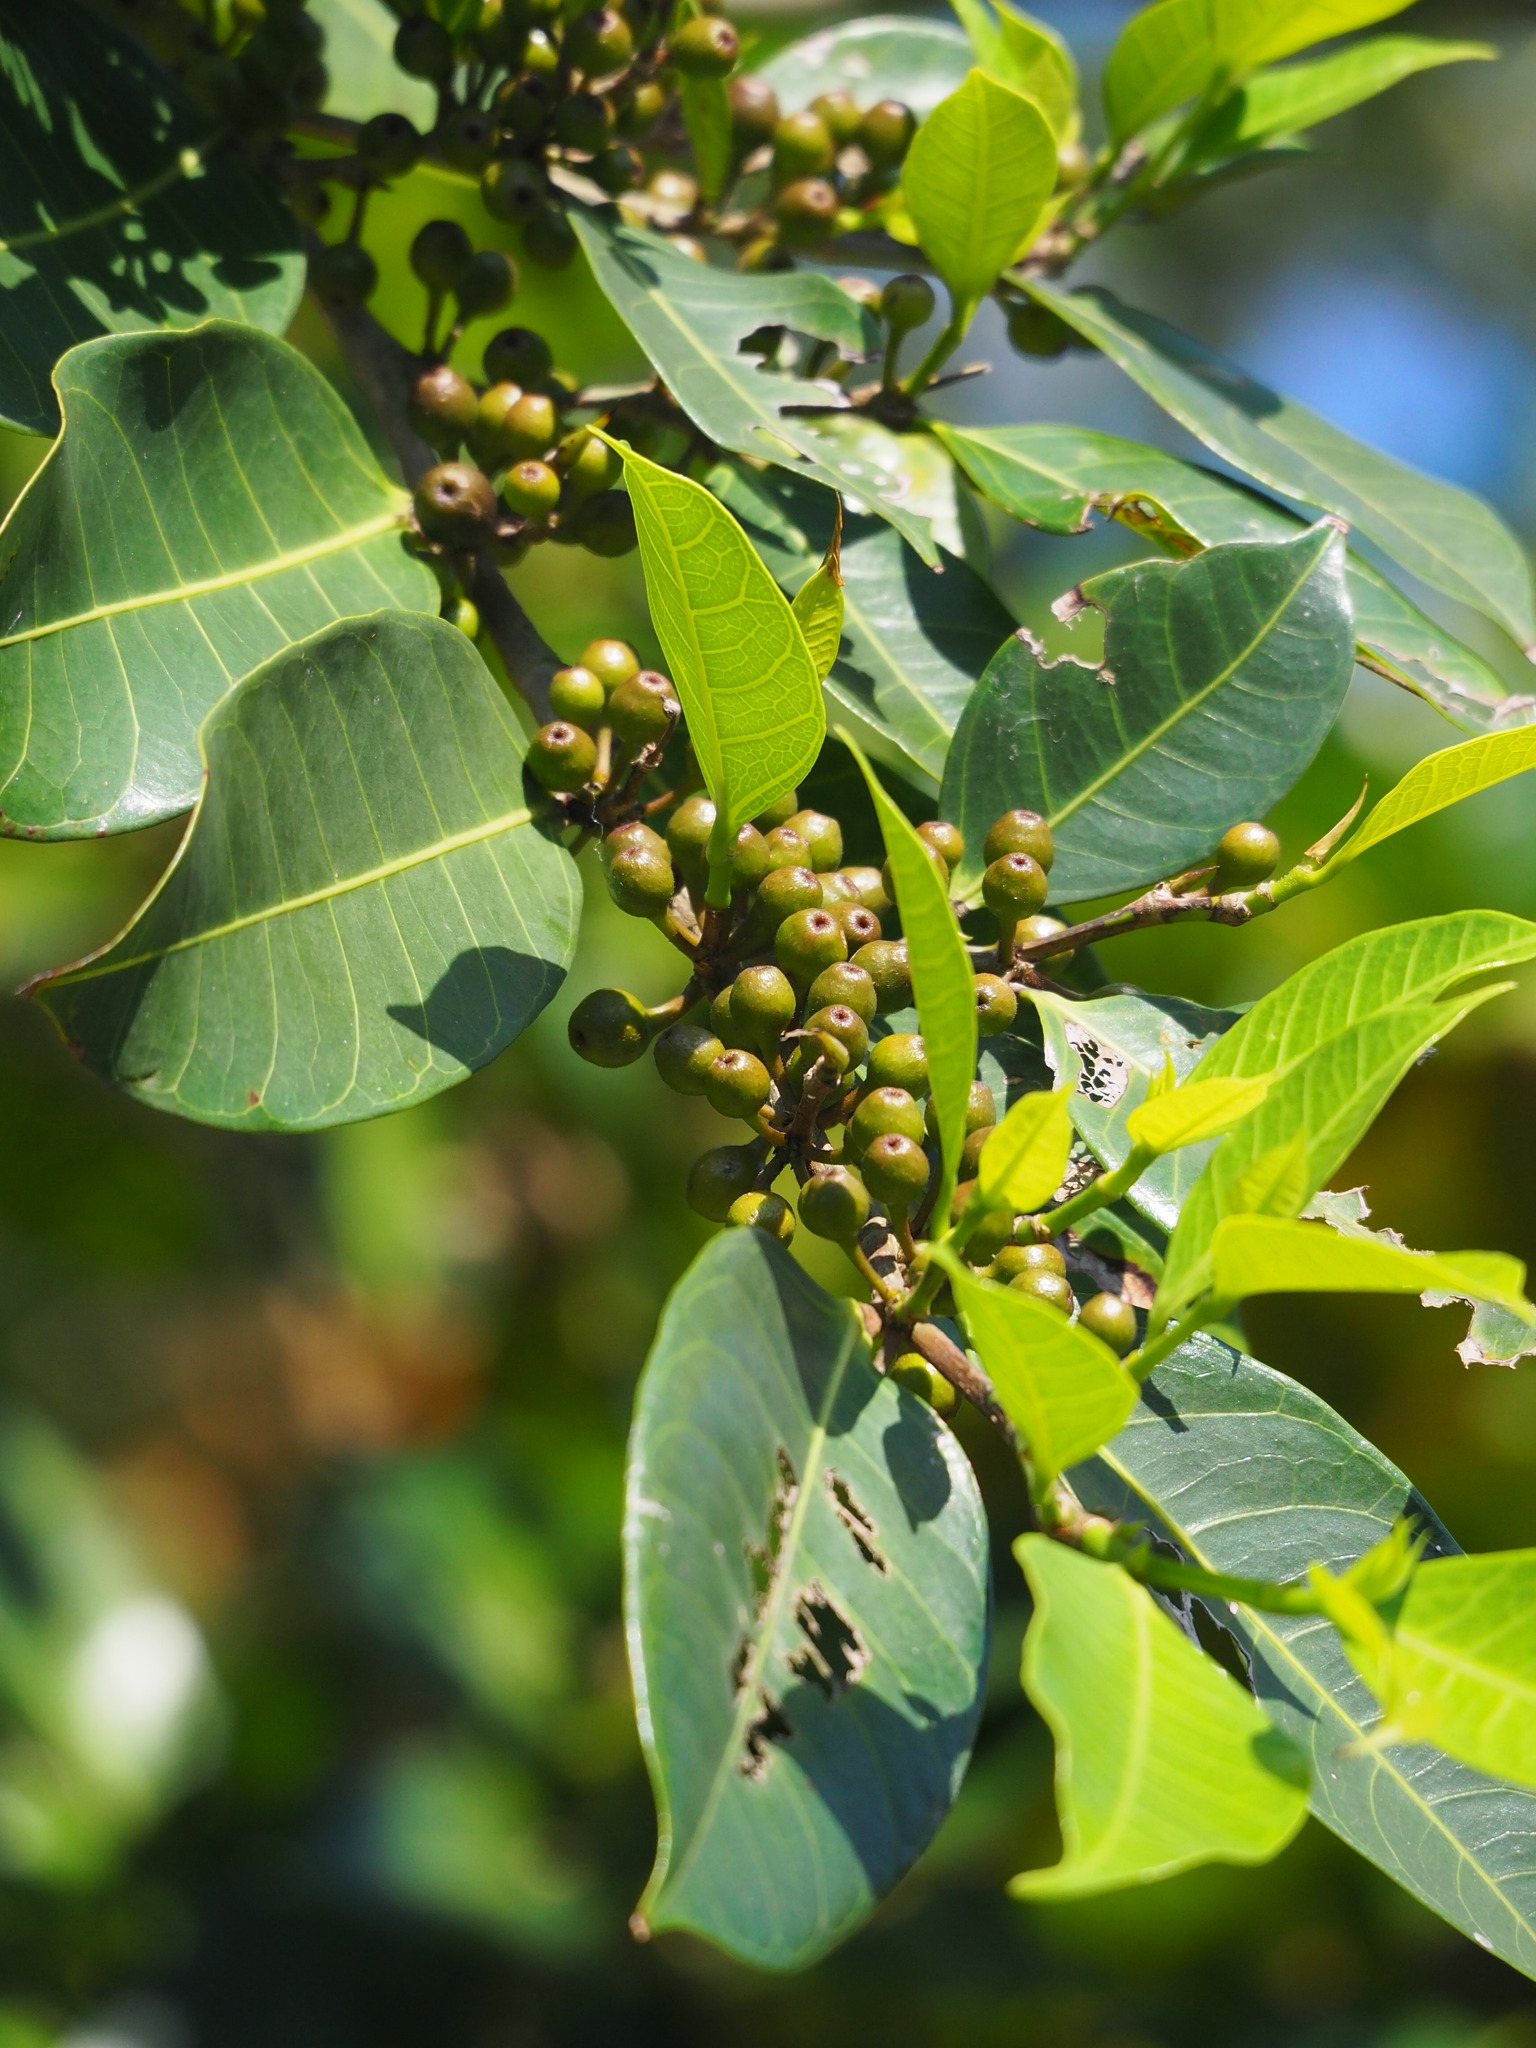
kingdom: Plantae
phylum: Tracheophyta
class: Magnoliopsida
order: Rosales
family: Moraceae
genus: Ficus
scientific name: Ficus virgata
